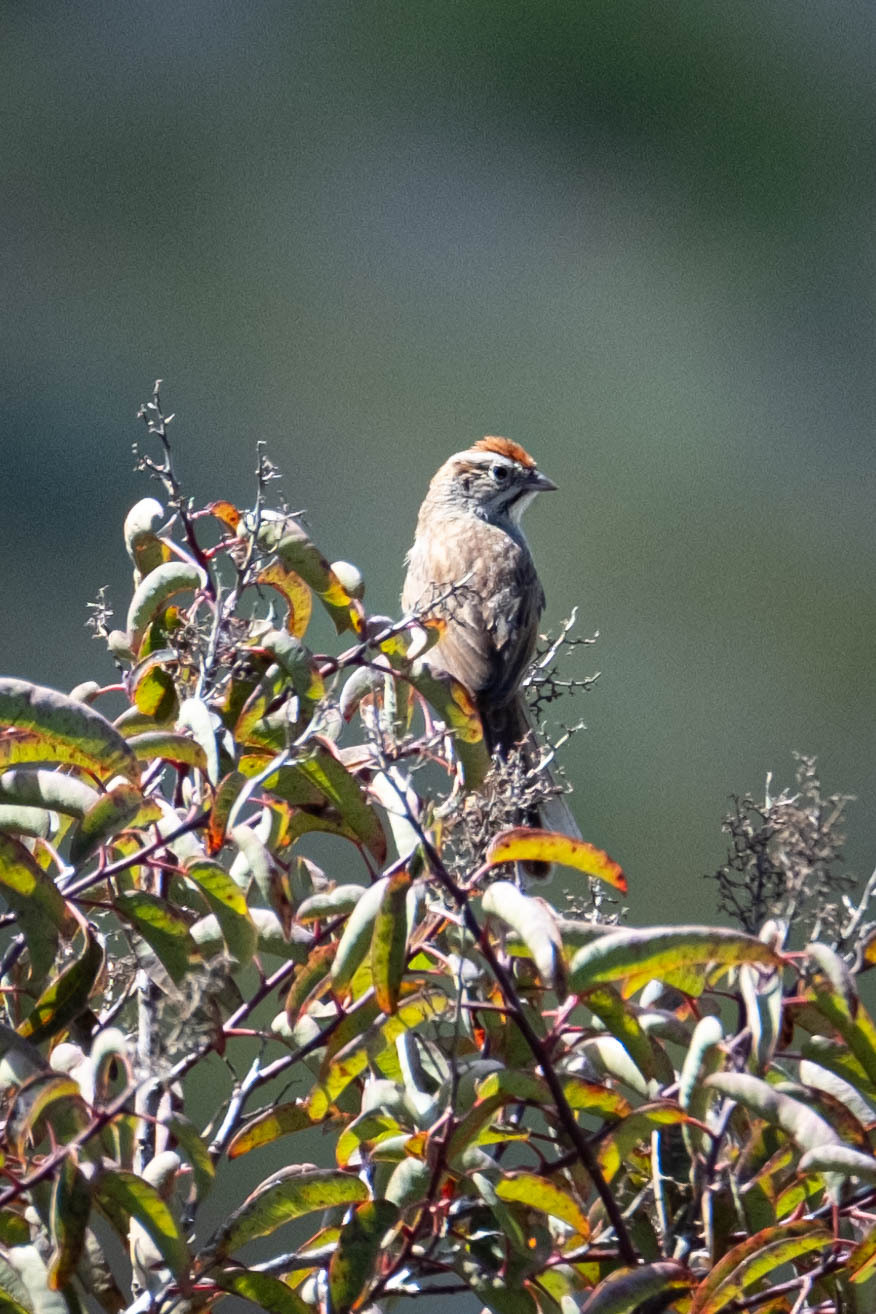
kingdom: Animalia
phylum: Chordata
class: Aves
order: Passeriformes
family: Passerellidae
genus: Aimophila
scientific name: Aimophila ruficeps
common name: Rufous-crowned sparrow
